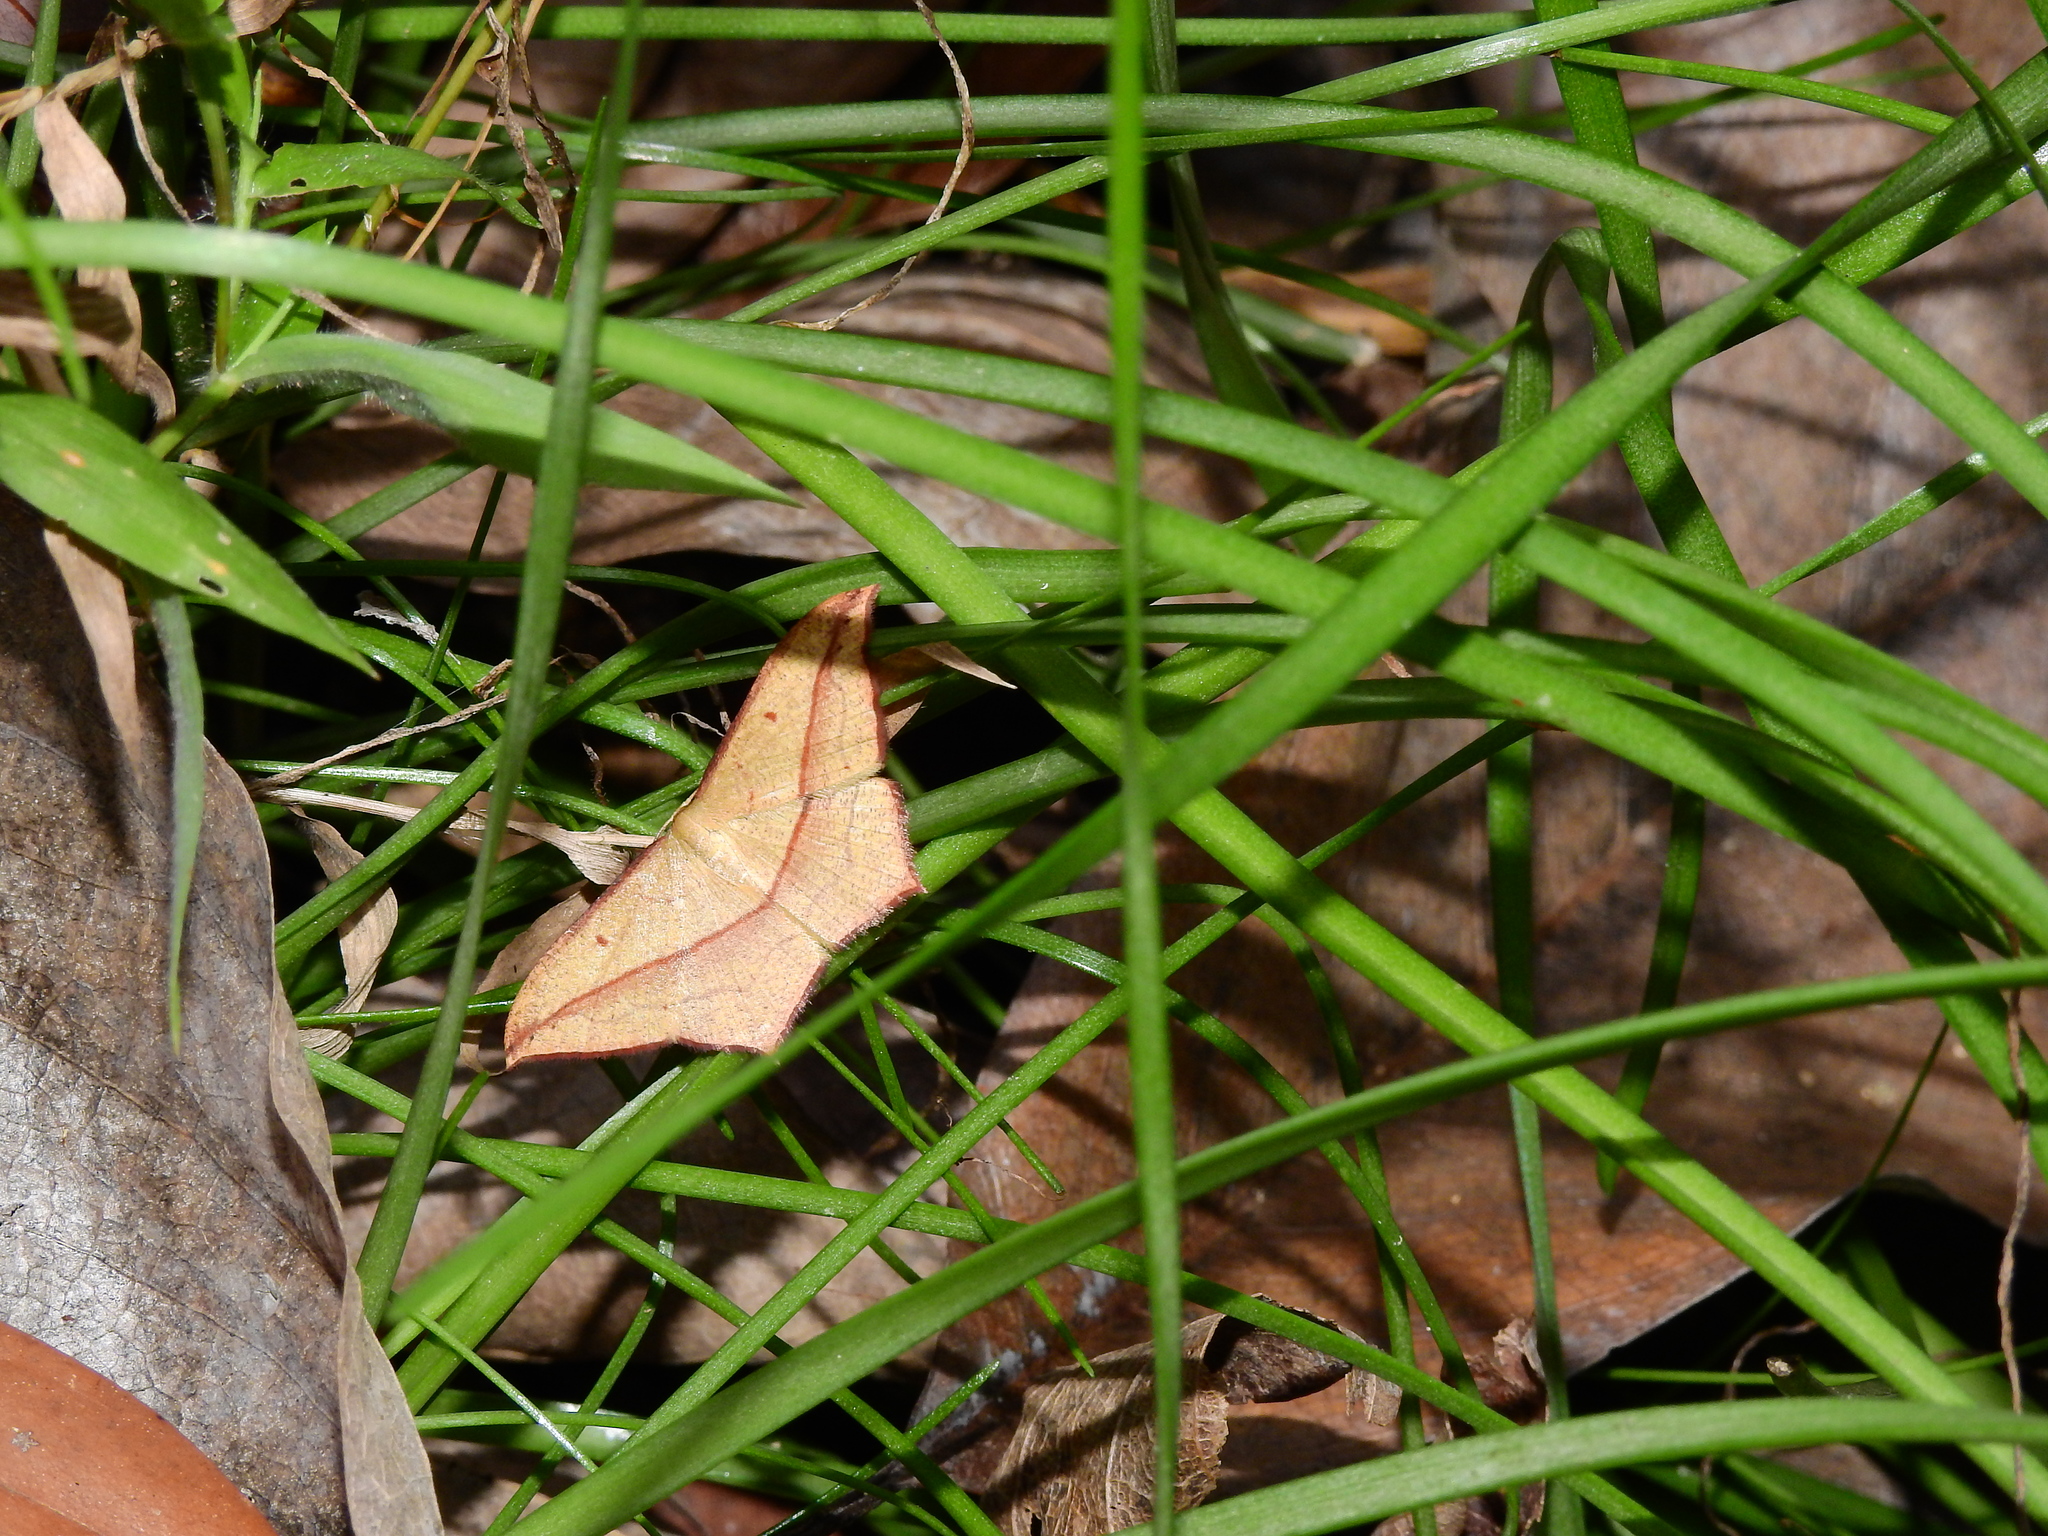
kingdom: Animalia
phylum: Arthropoda
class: Insecta
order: Lepidoptera
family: Geometridae
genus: Timandra
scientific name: Timandra convectaria
